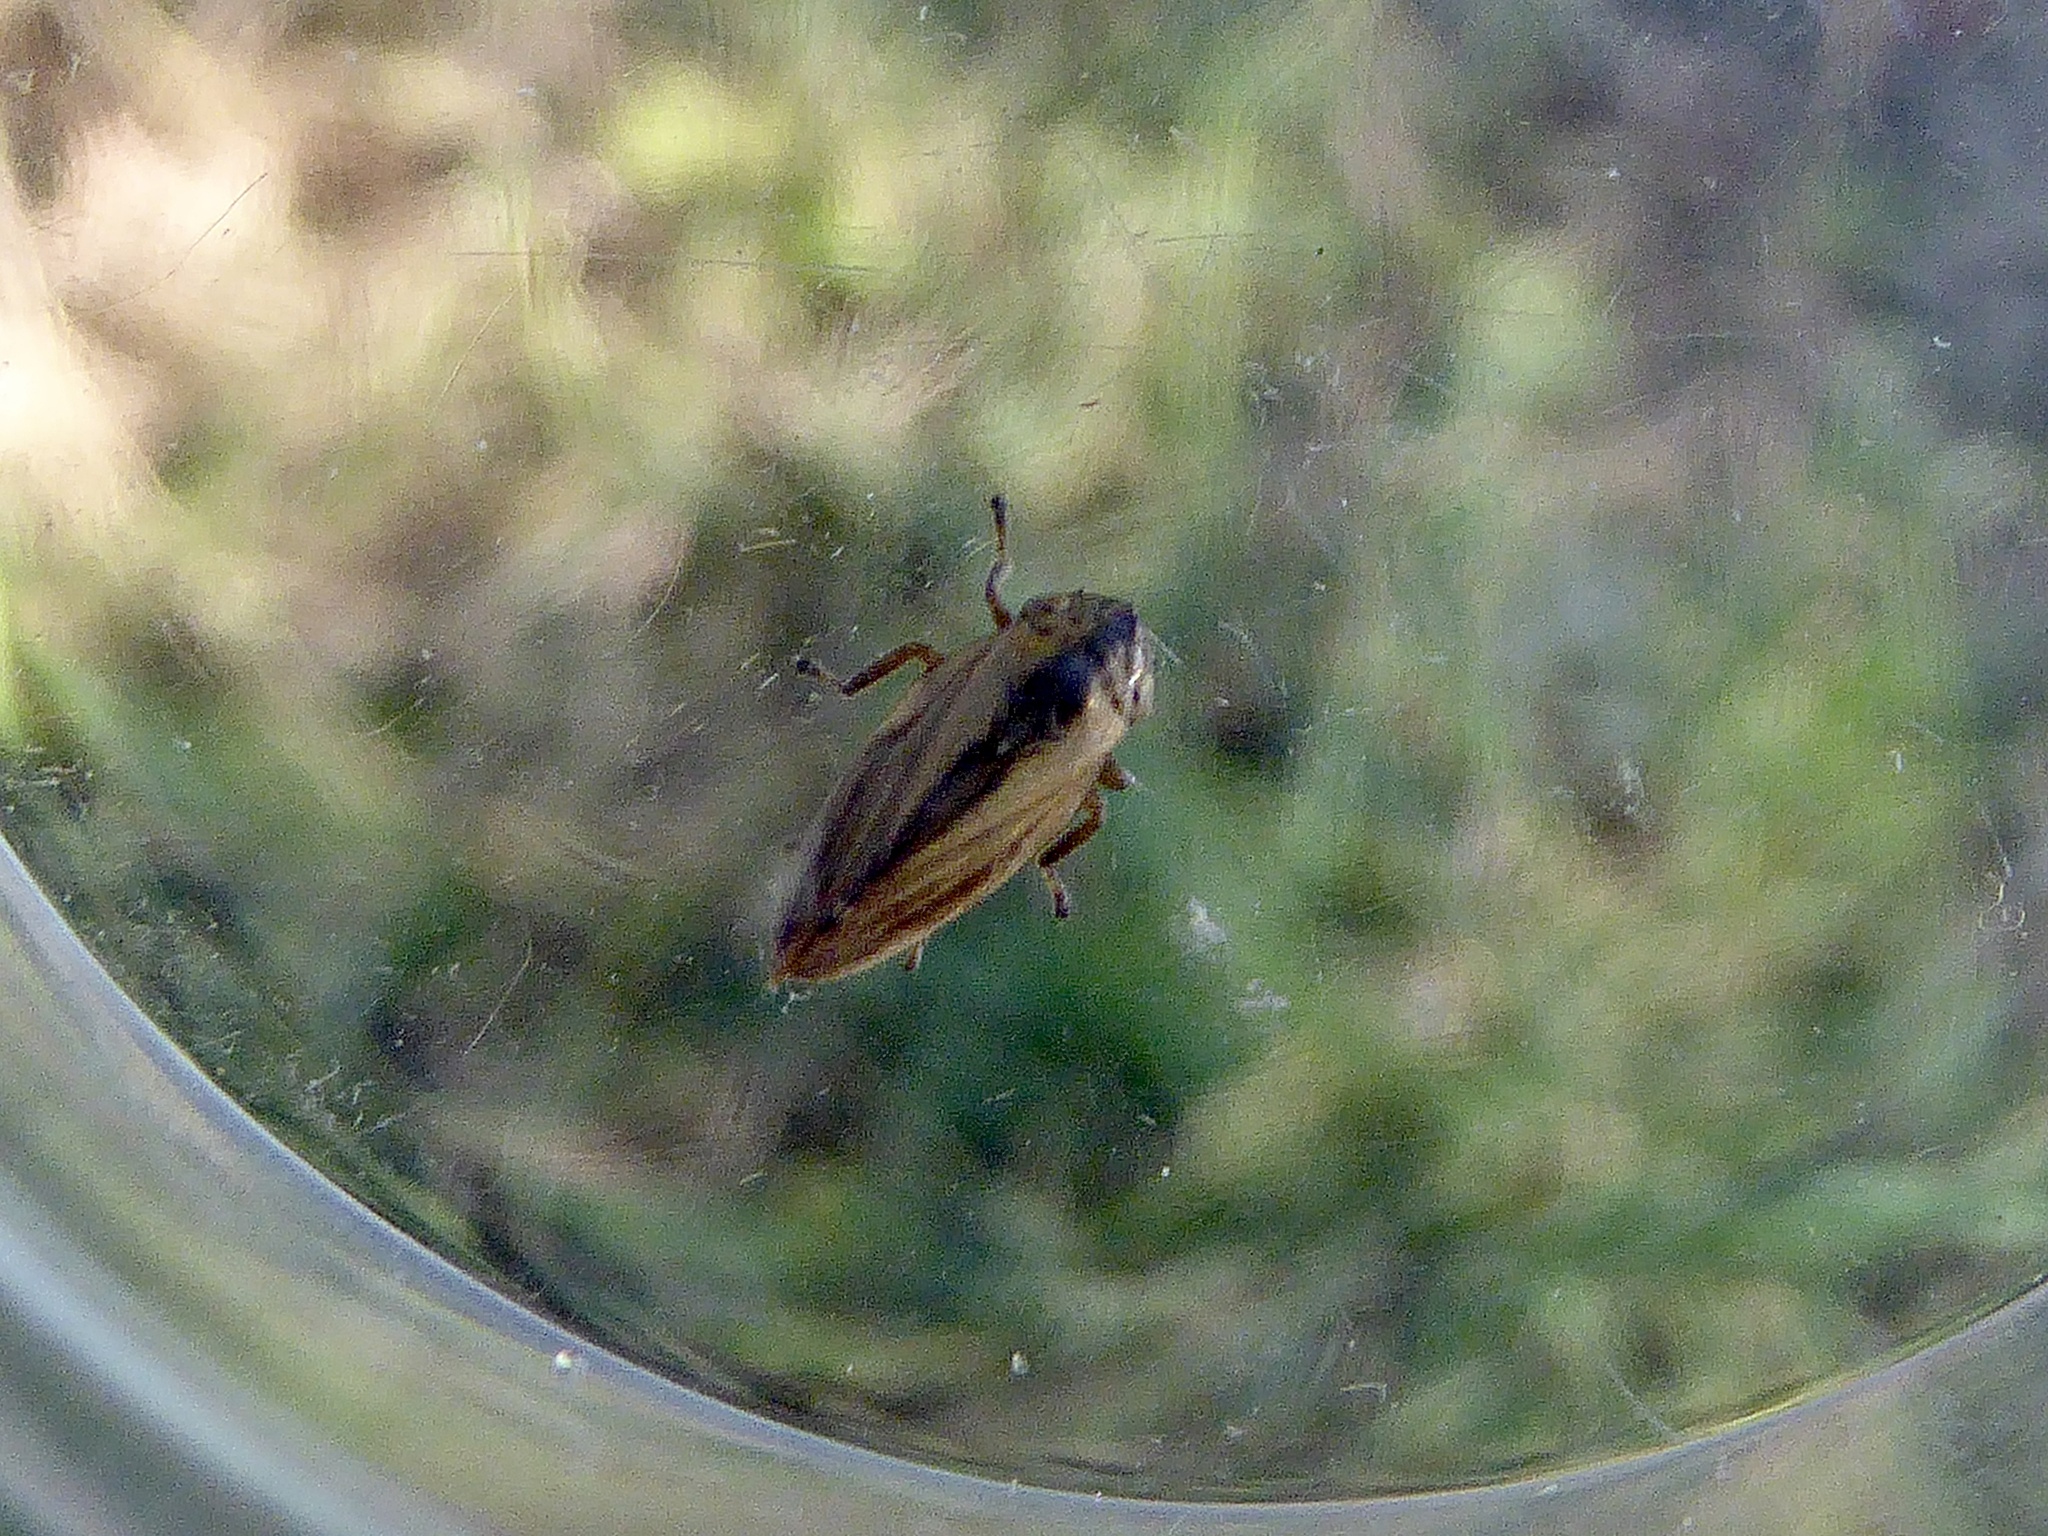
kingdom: Animalia
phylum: Arthropoda
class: Insecta
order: Hemiptera
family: Aphrophoridae
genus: Philaenus
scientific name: Philaenus spumarius
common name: Meadow spittlebug
